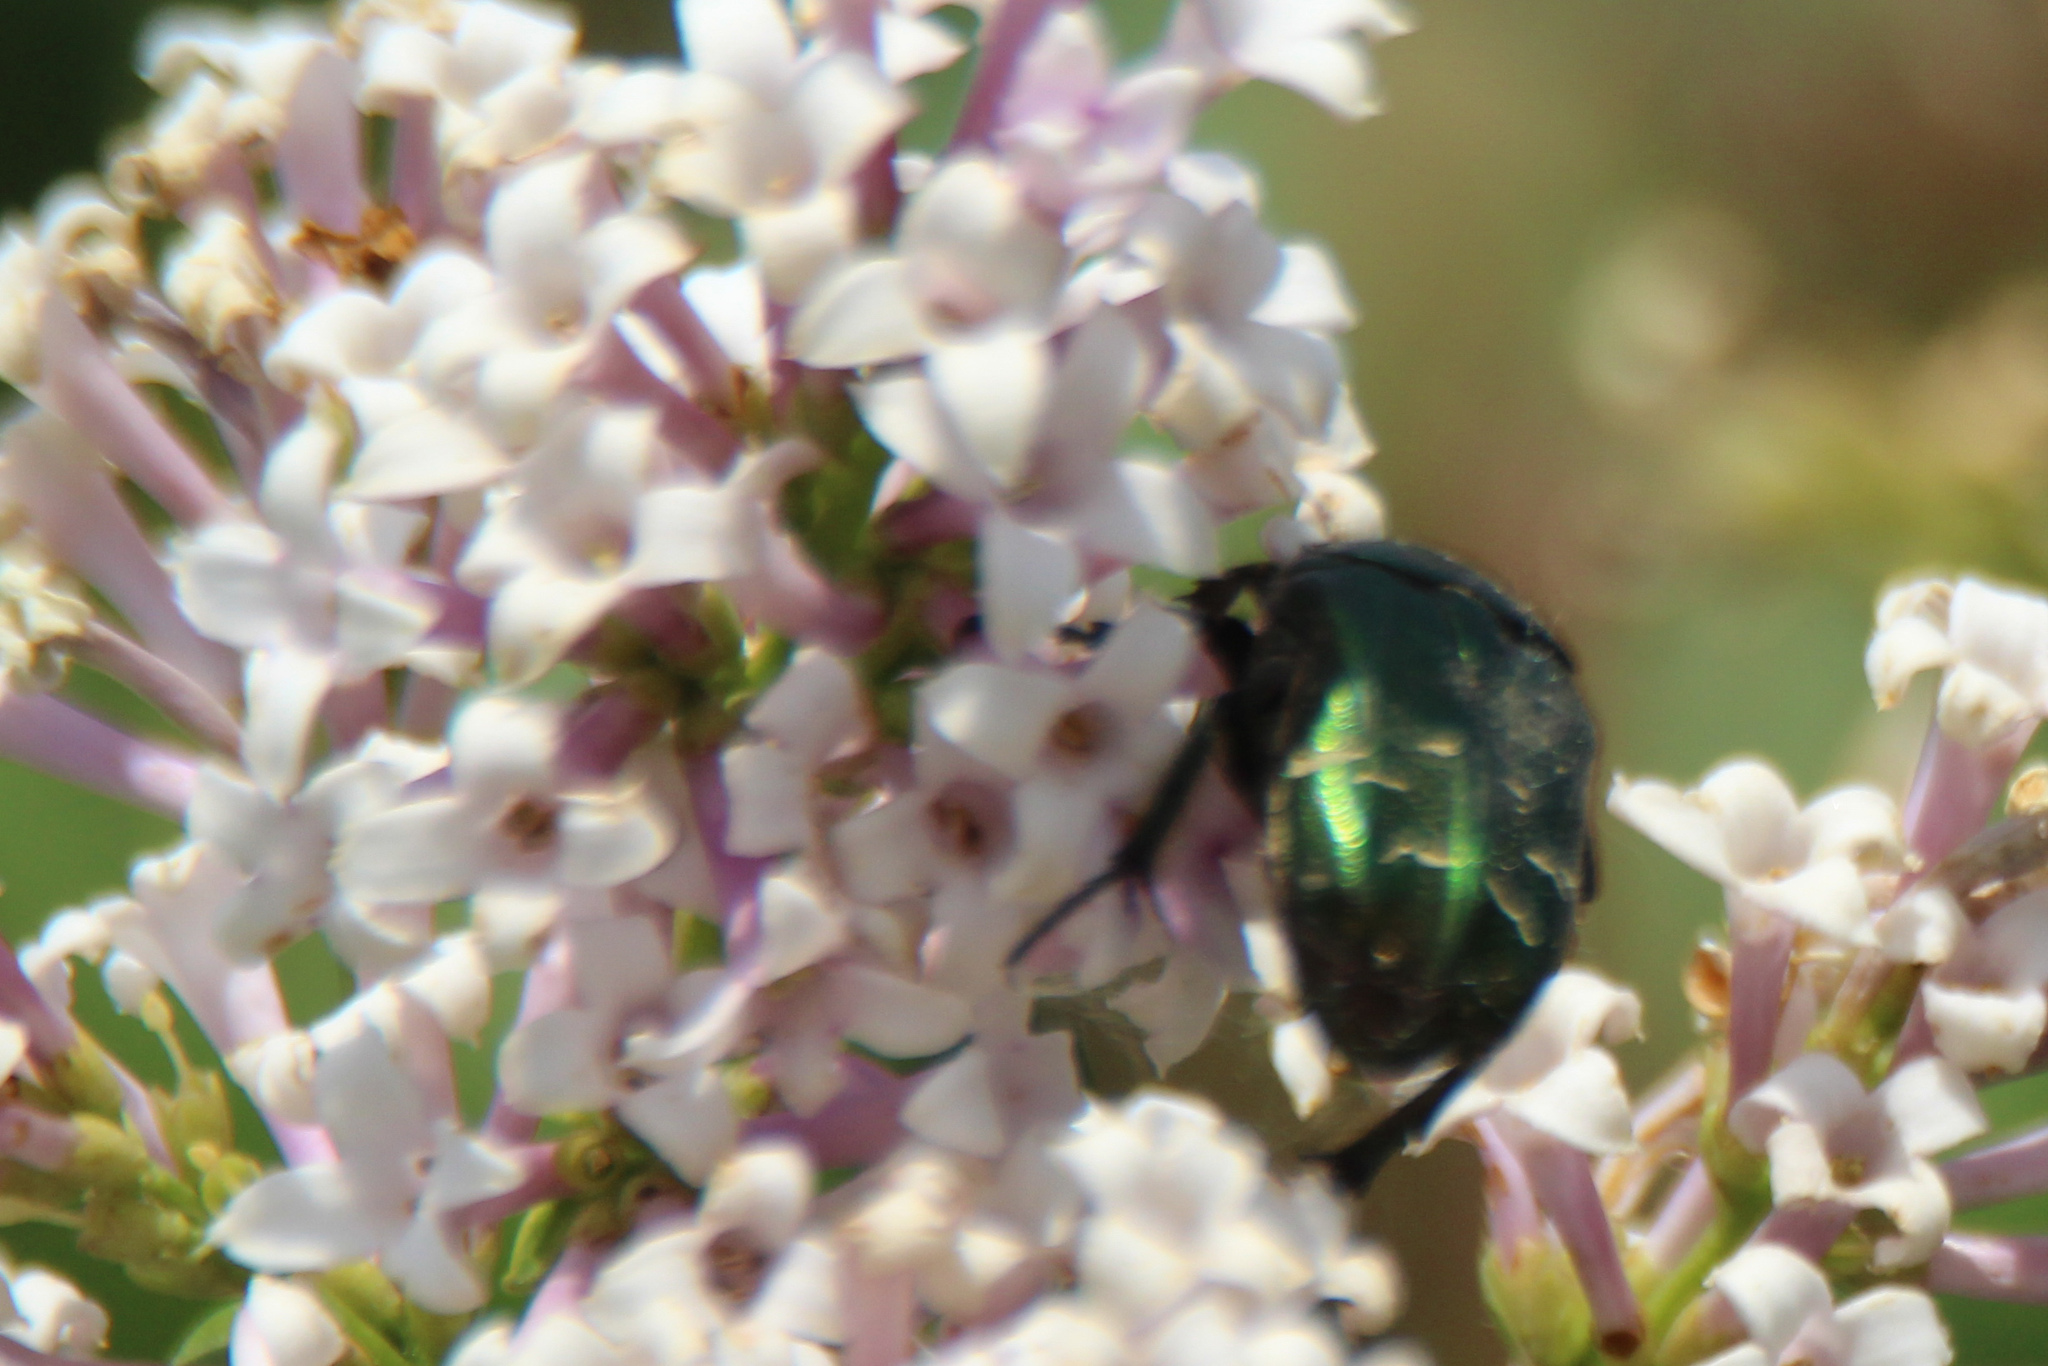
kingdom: Animalia
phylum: Arthropoda
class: Insecta
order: Coleoptera
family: Scarabaeidae
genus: Cetonia
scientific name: Cetonia aurata
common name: Rose chafer
